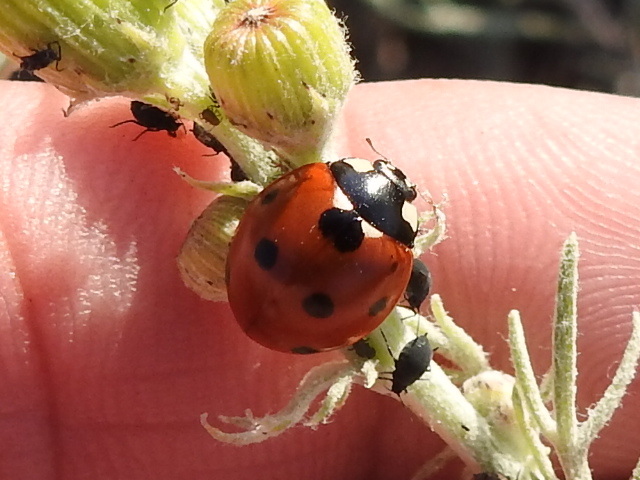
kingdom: Animalia
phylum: Arthropoda
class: Insecta
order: Coleoptera
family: Coccinellidae
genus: Coccinella
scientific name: Coccinella septempunctata
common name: Sevenspotted lady beetle
